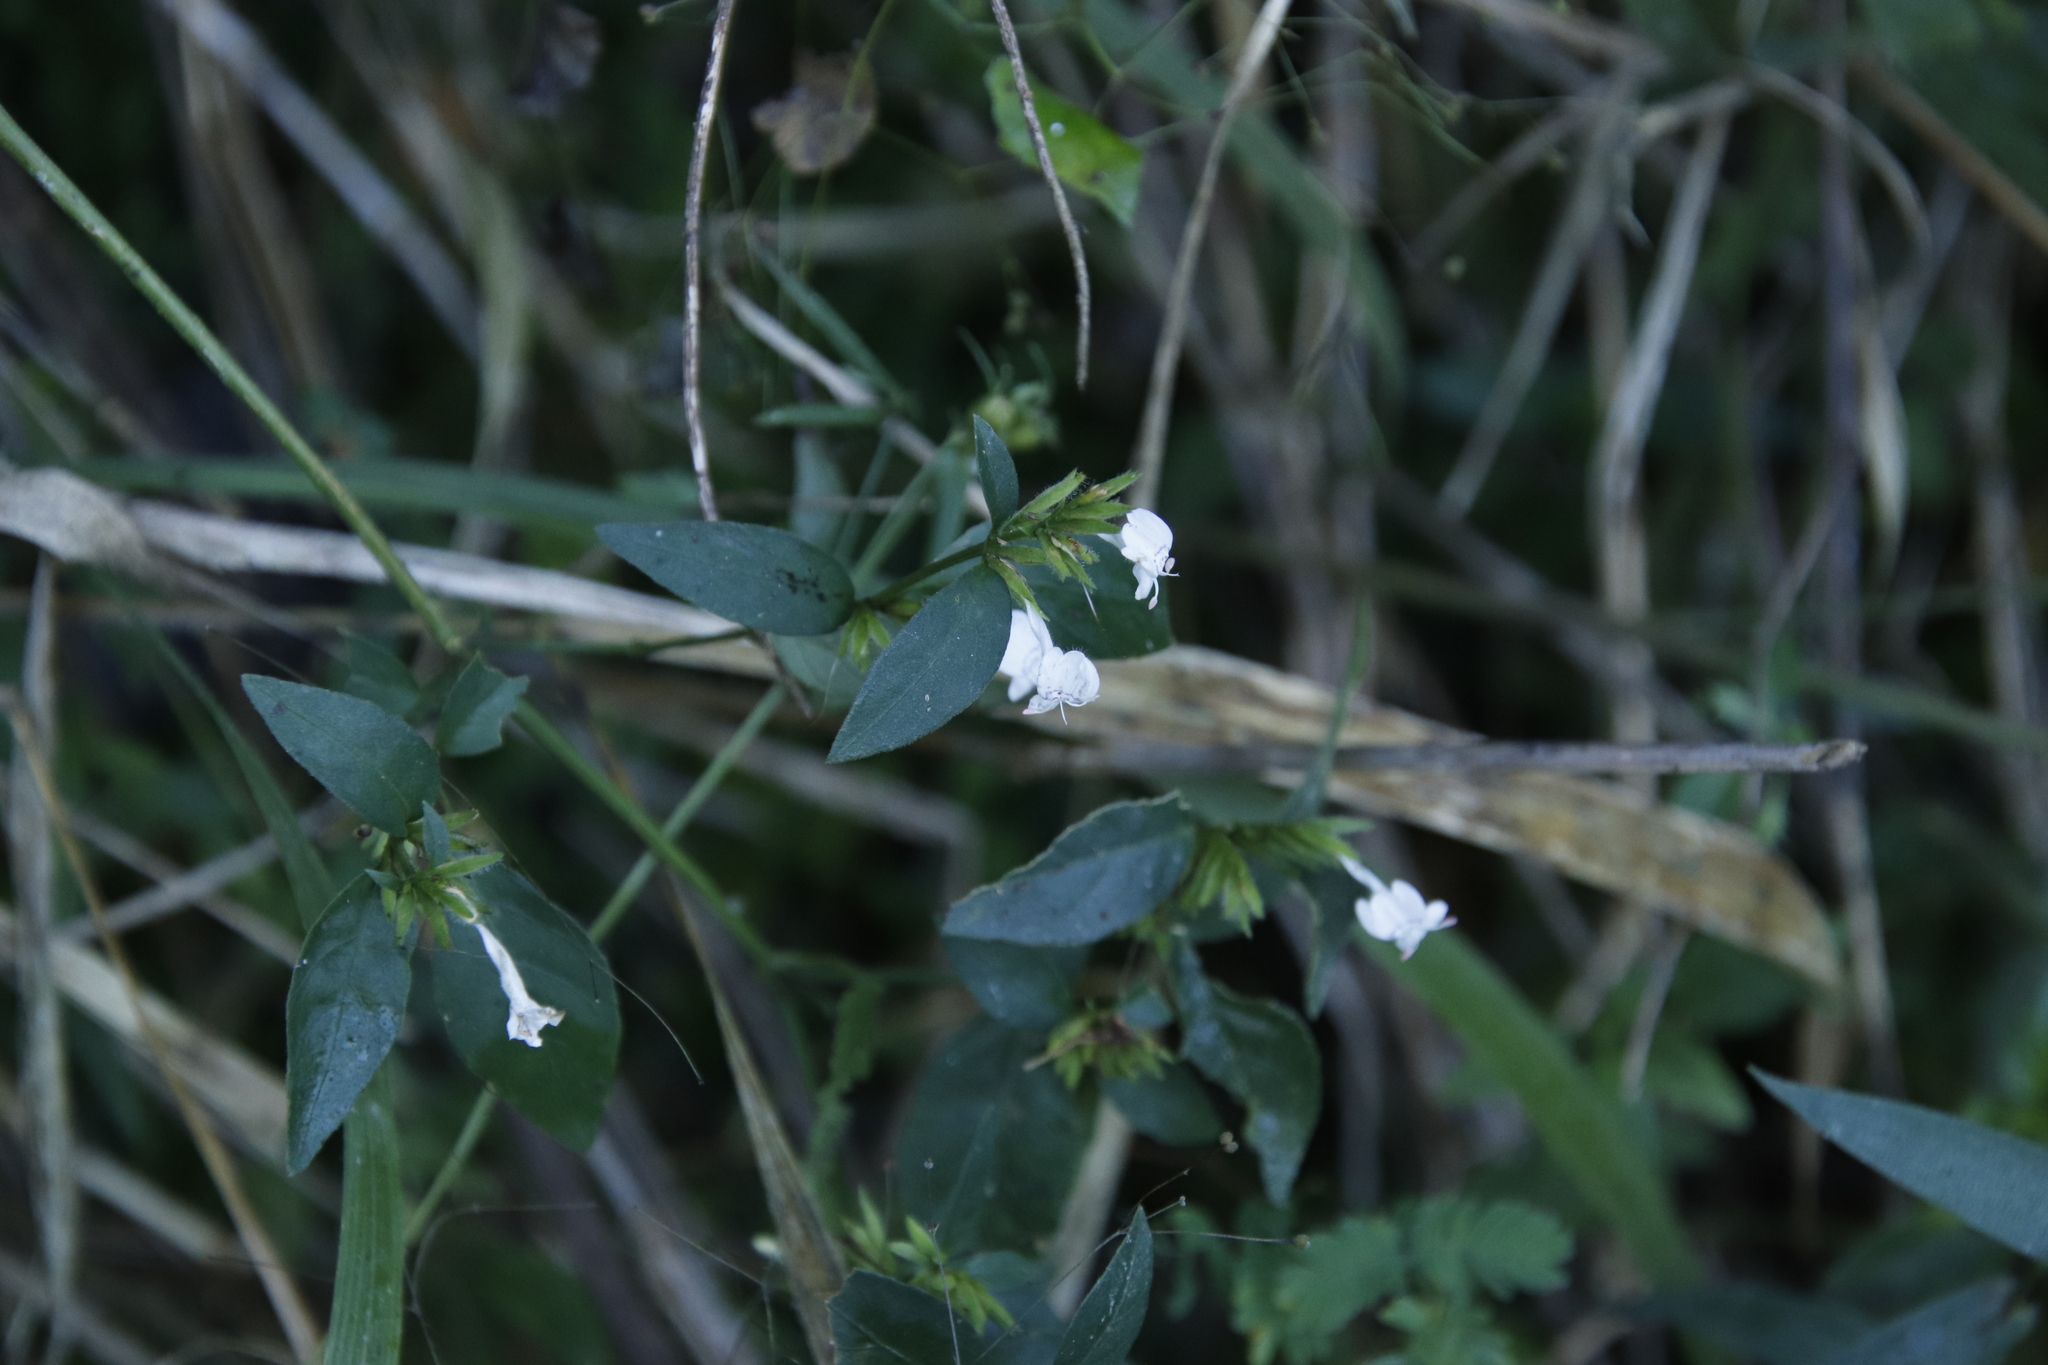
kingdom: Plantae
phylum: Tracheophyta
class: Magnoliopsida
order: Lamiales
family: Acanthaceae
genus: Hypoestes
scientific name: Hypoestes forskaolii
